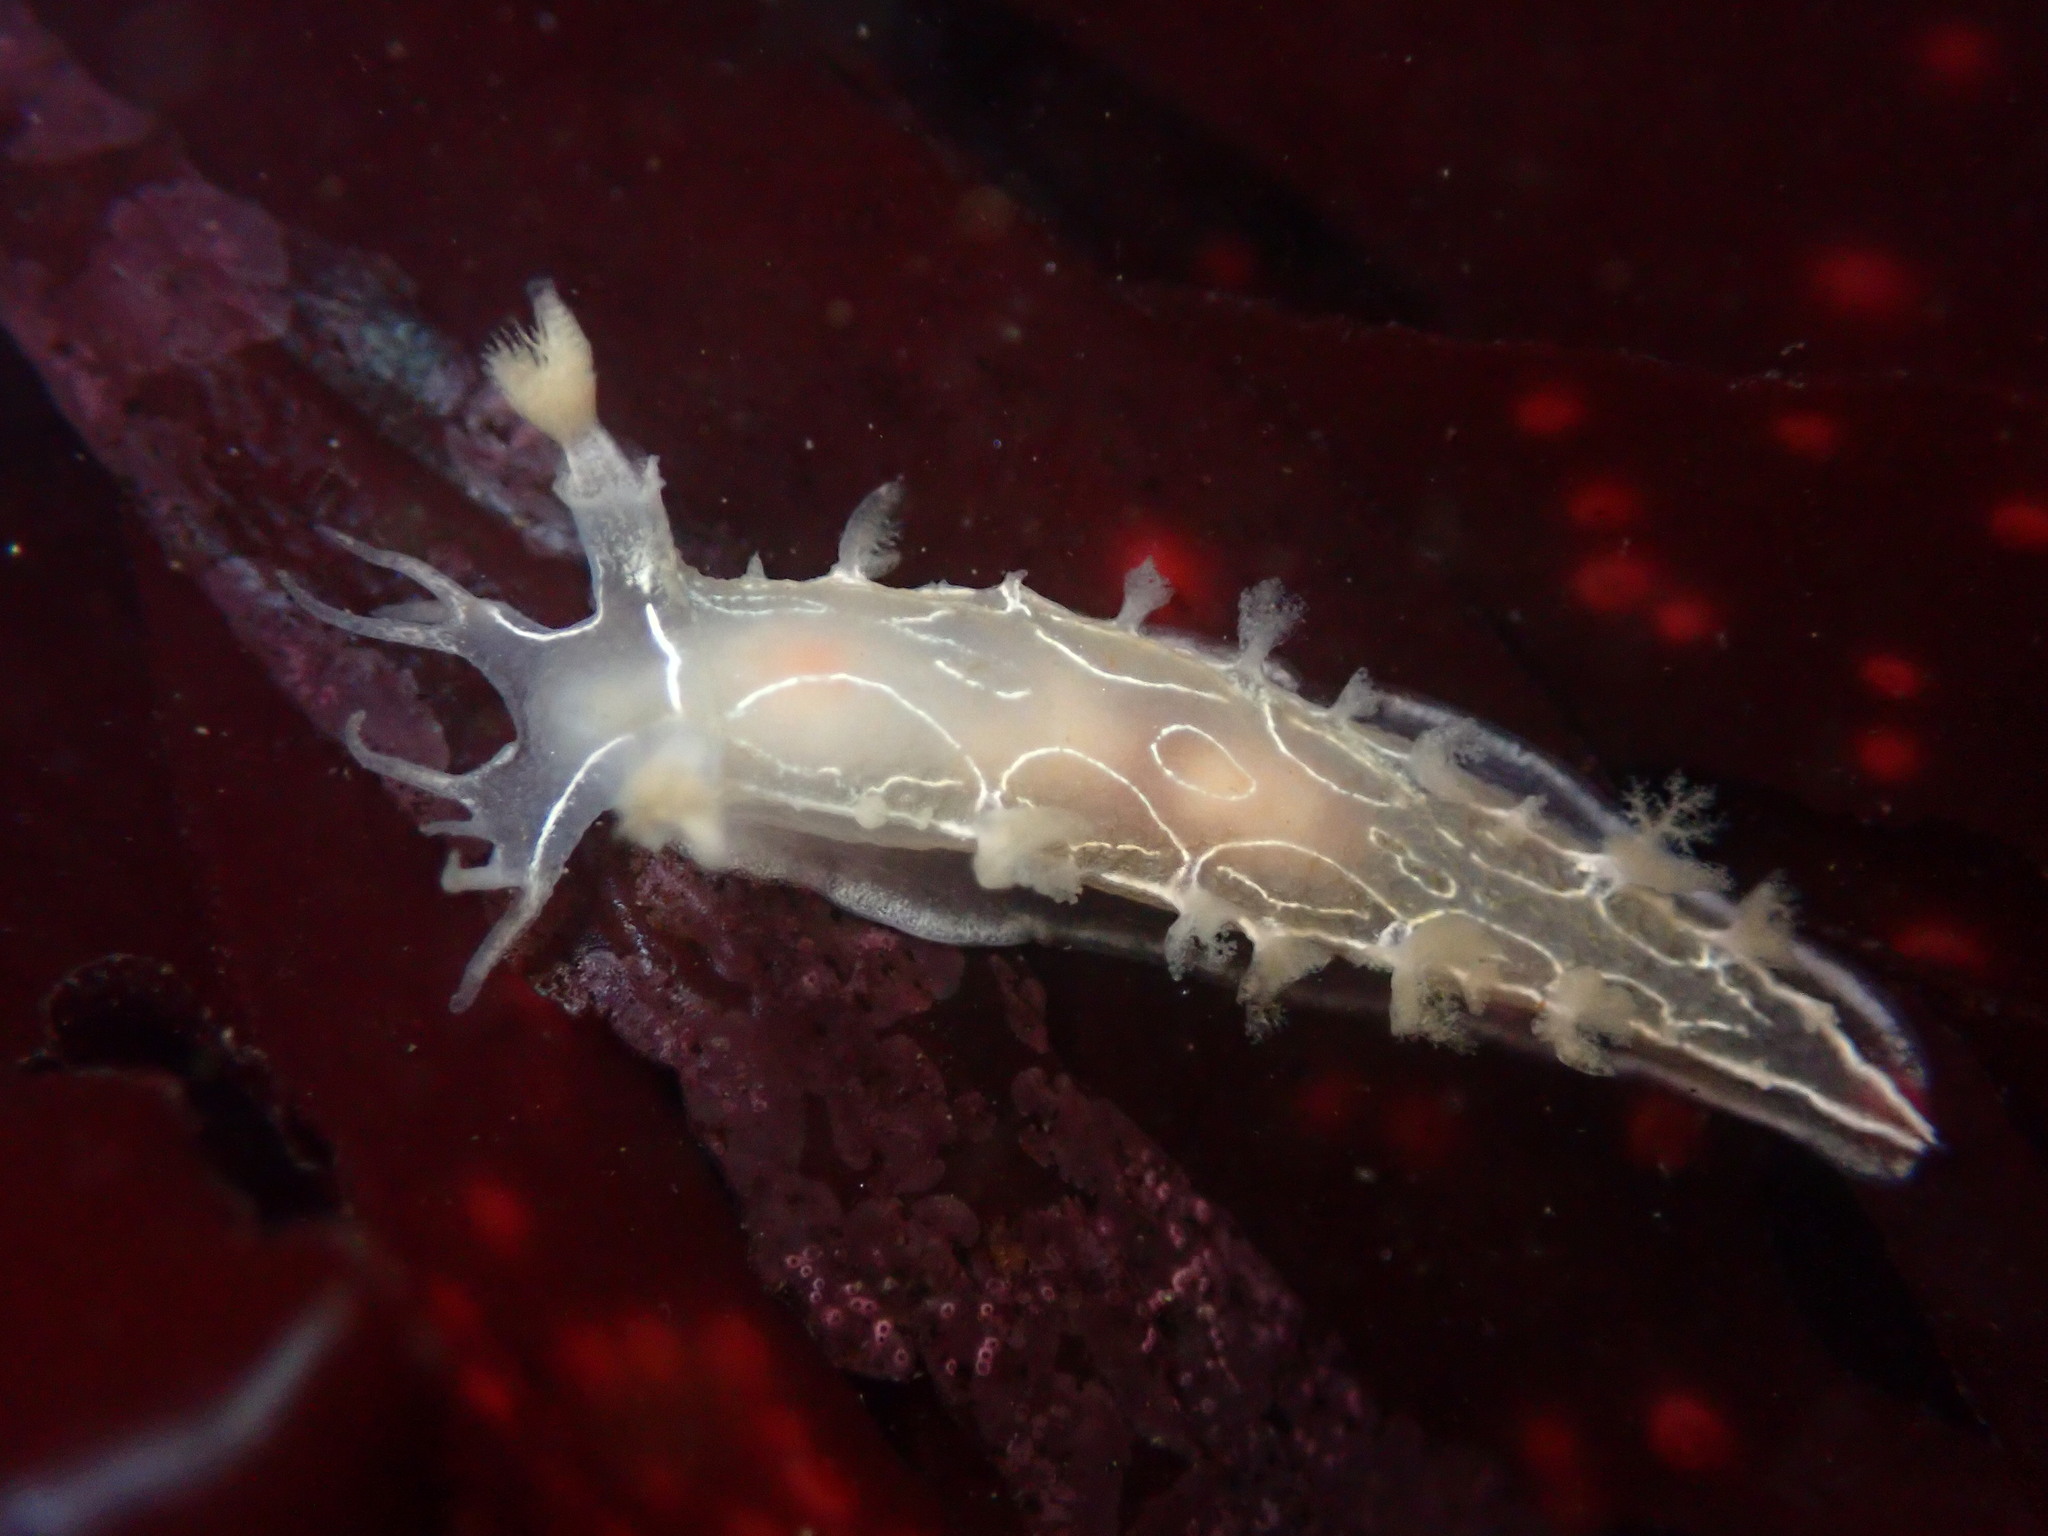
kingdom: Animalia
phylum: Mollusca
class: Gastropoda
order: Nudibranchia
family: Tritoniidae
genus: Tritonia
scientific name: Tritonia festiva
